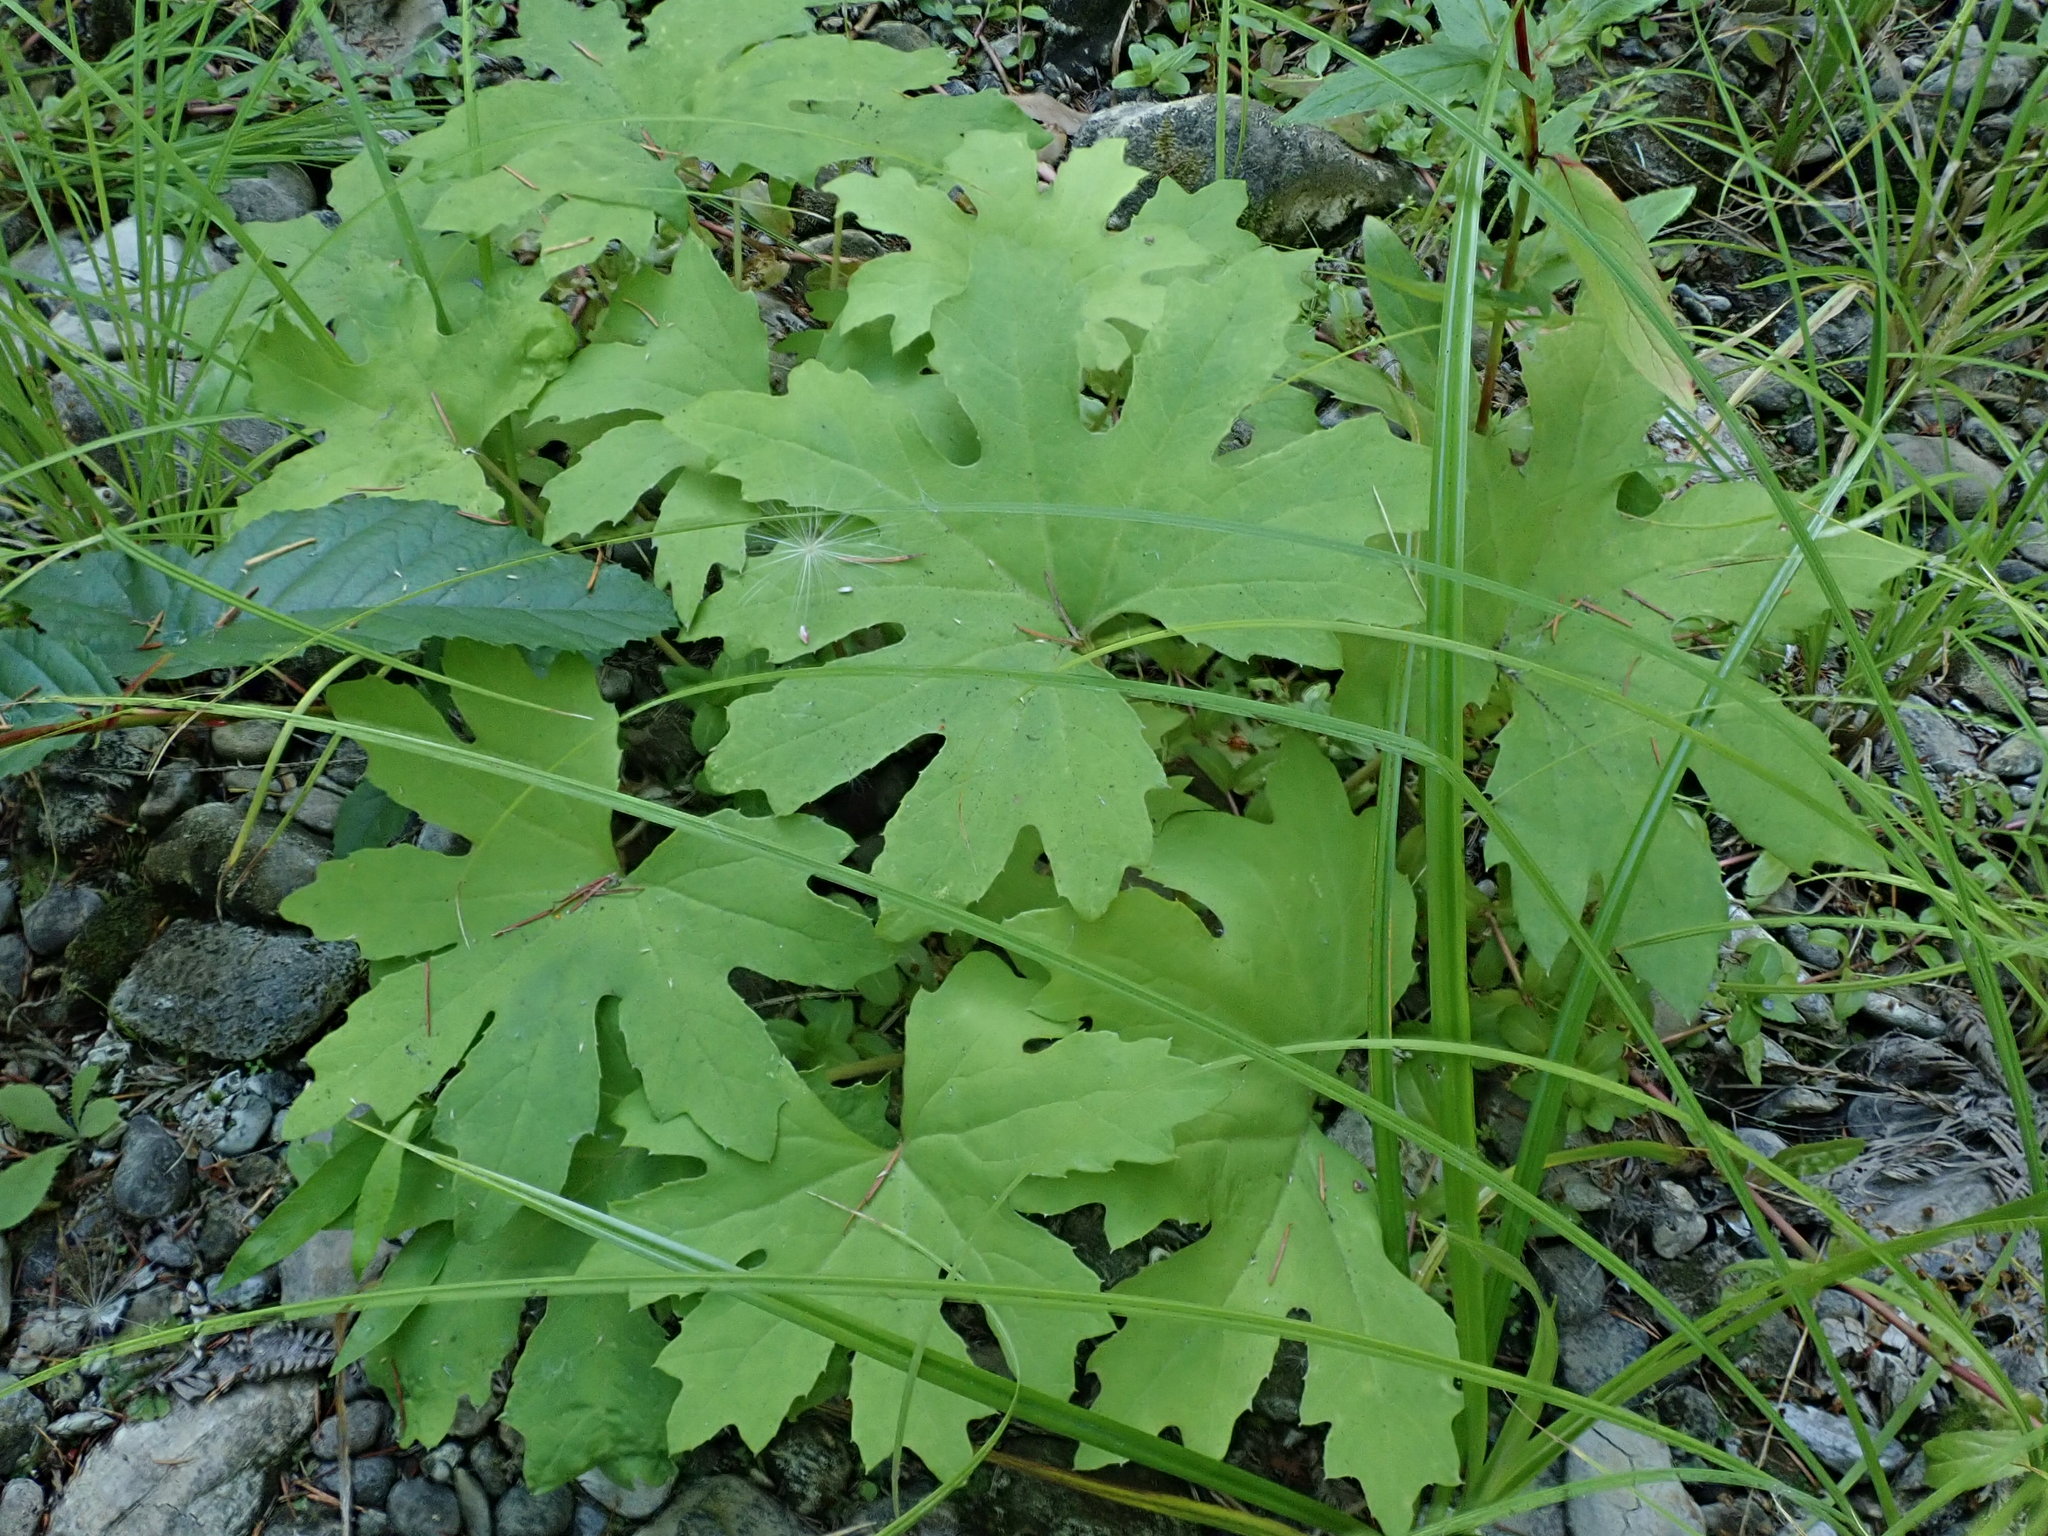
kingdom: Plantae
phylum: Tracheophyta
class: Magnoliopsida
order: Asterales
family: Asteraceae
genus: Petasites
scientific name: Petasites frigidus
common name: Arctic butterbur
